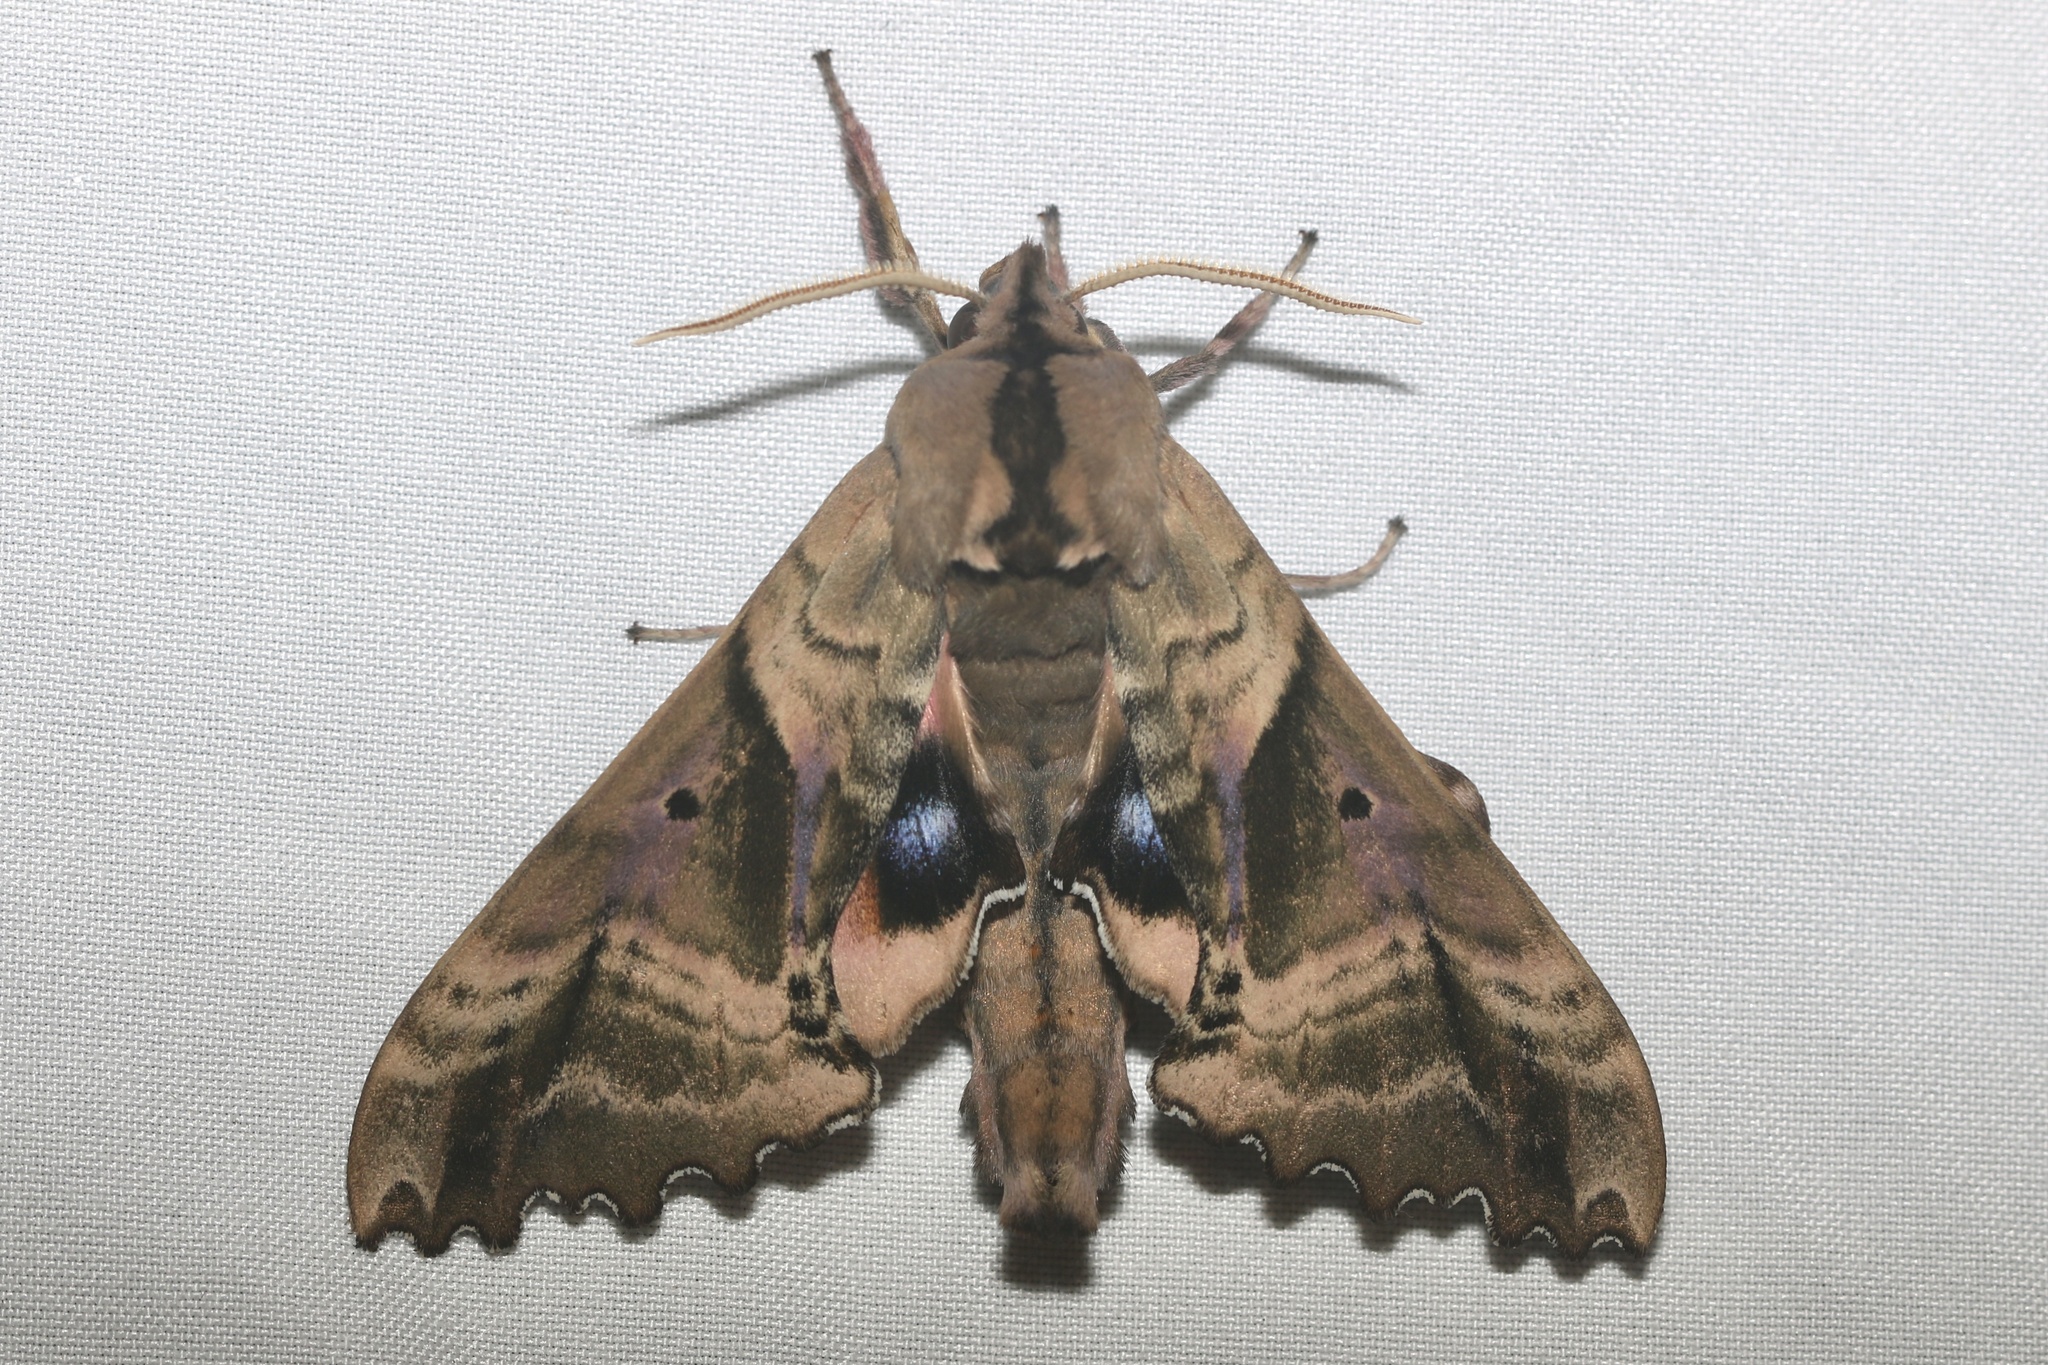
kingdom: Animalia
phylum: Arthropoda
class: Insecta
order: Lepidoptera
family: Sphingidae
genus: Paonias
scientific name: Paonias excaecata
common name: Blind-eyed sphinx
